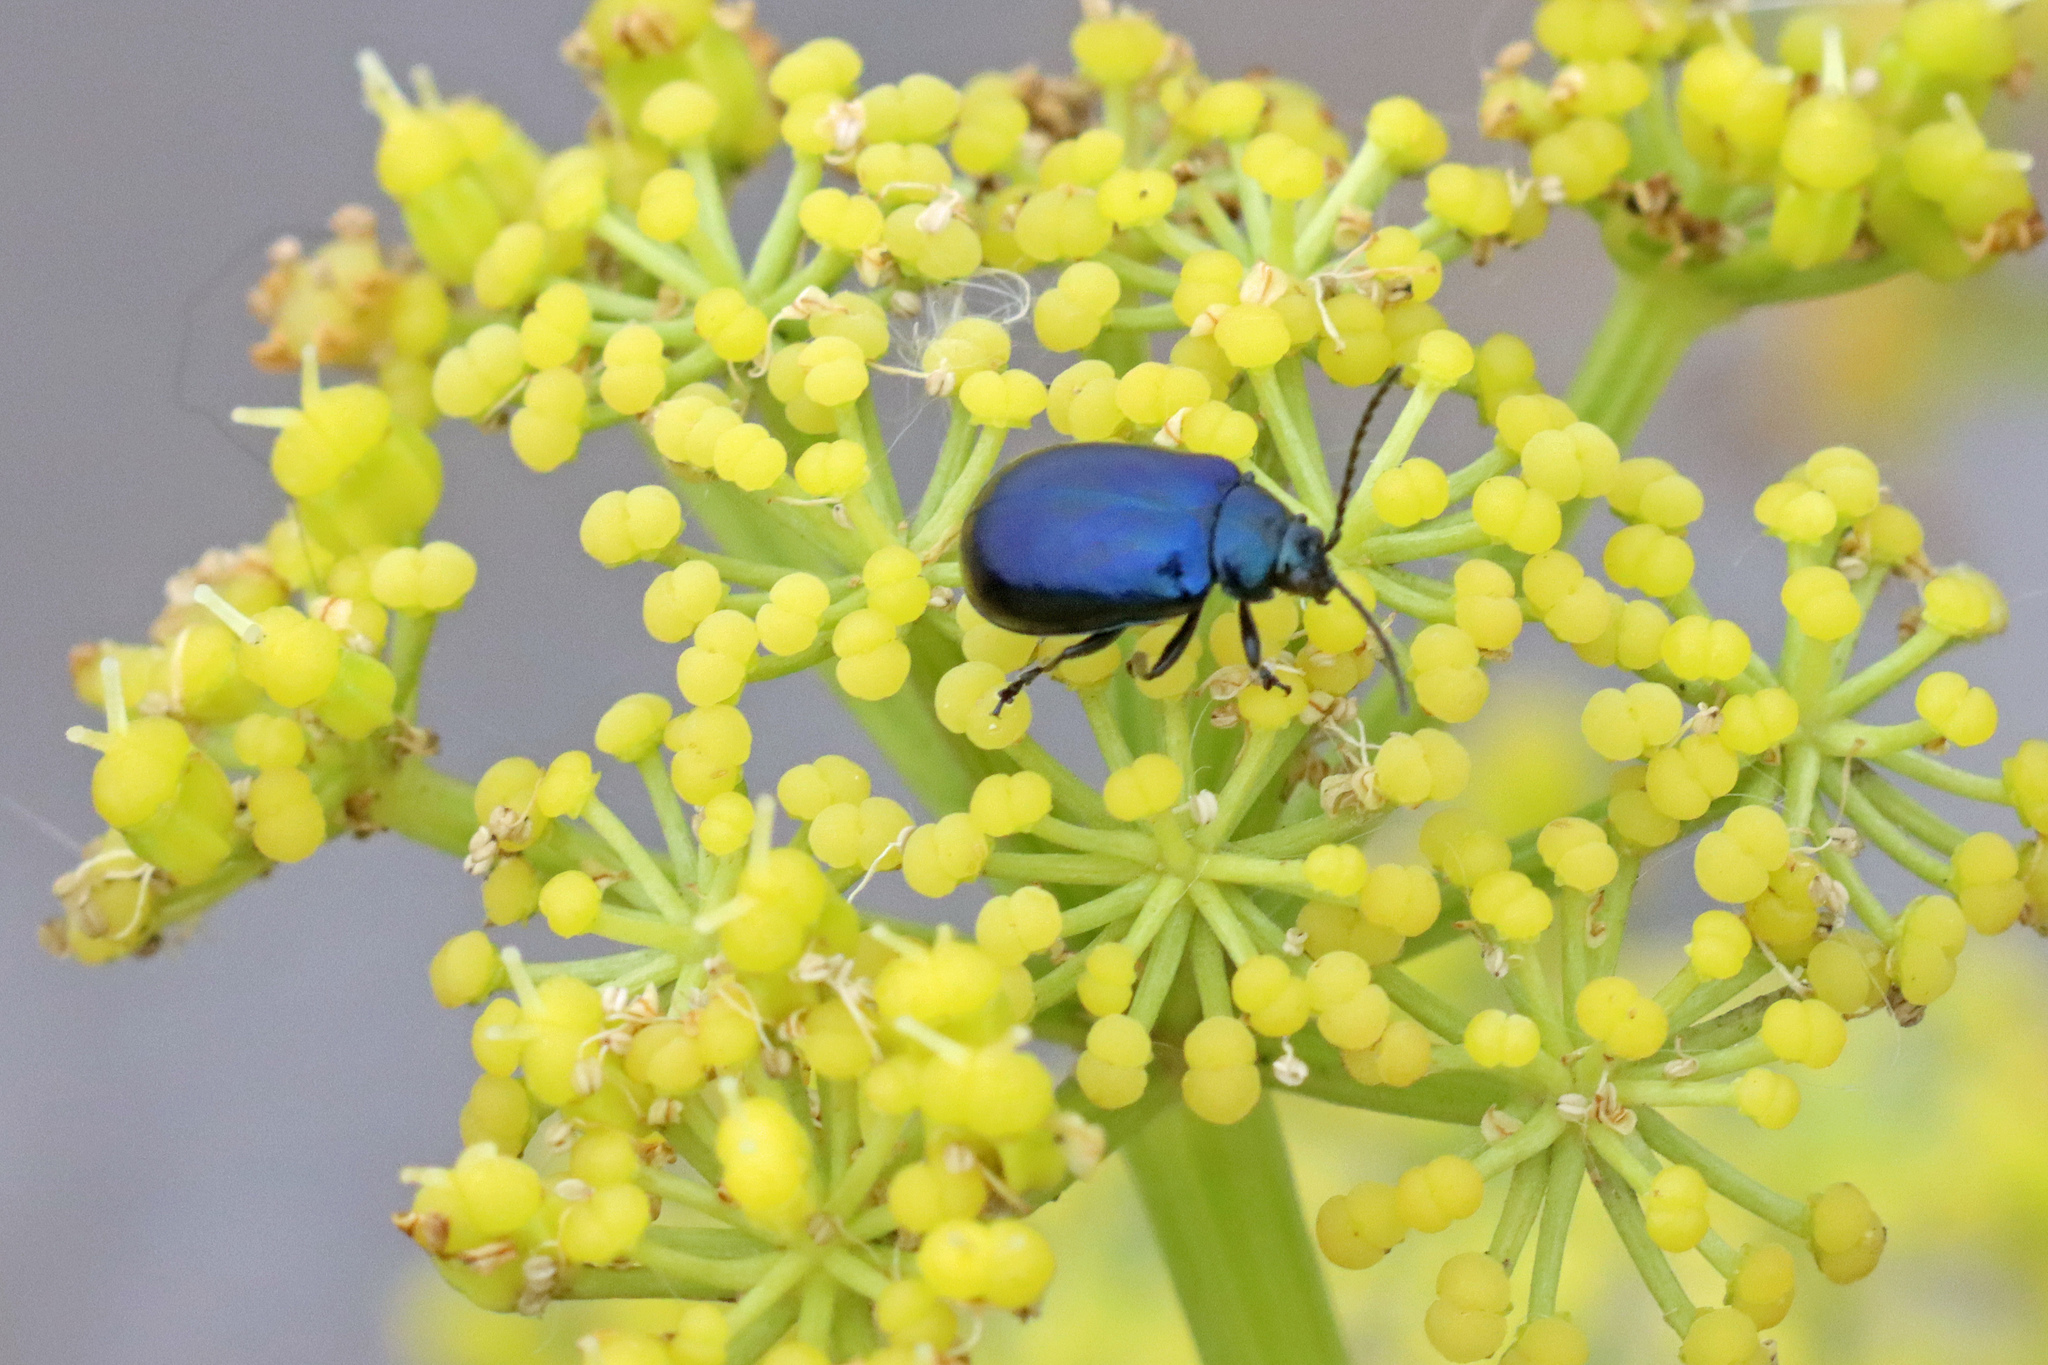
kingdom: Animalia
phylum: Arthropoda
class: Insecta
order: Coleoptera
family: Chrysomelidae
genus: Agelastica
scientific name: Agelastica alni
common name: Alder leaf beetle
